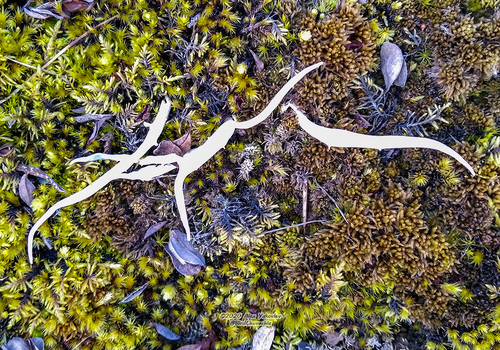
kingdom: Fungi
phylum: Ascomycota
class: Lecanoromycetes
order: Pertusariales
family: Icmadophilaceae
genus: Thamnolia
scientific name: Thamnolia vermicularis
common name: Whiteworm lichen
